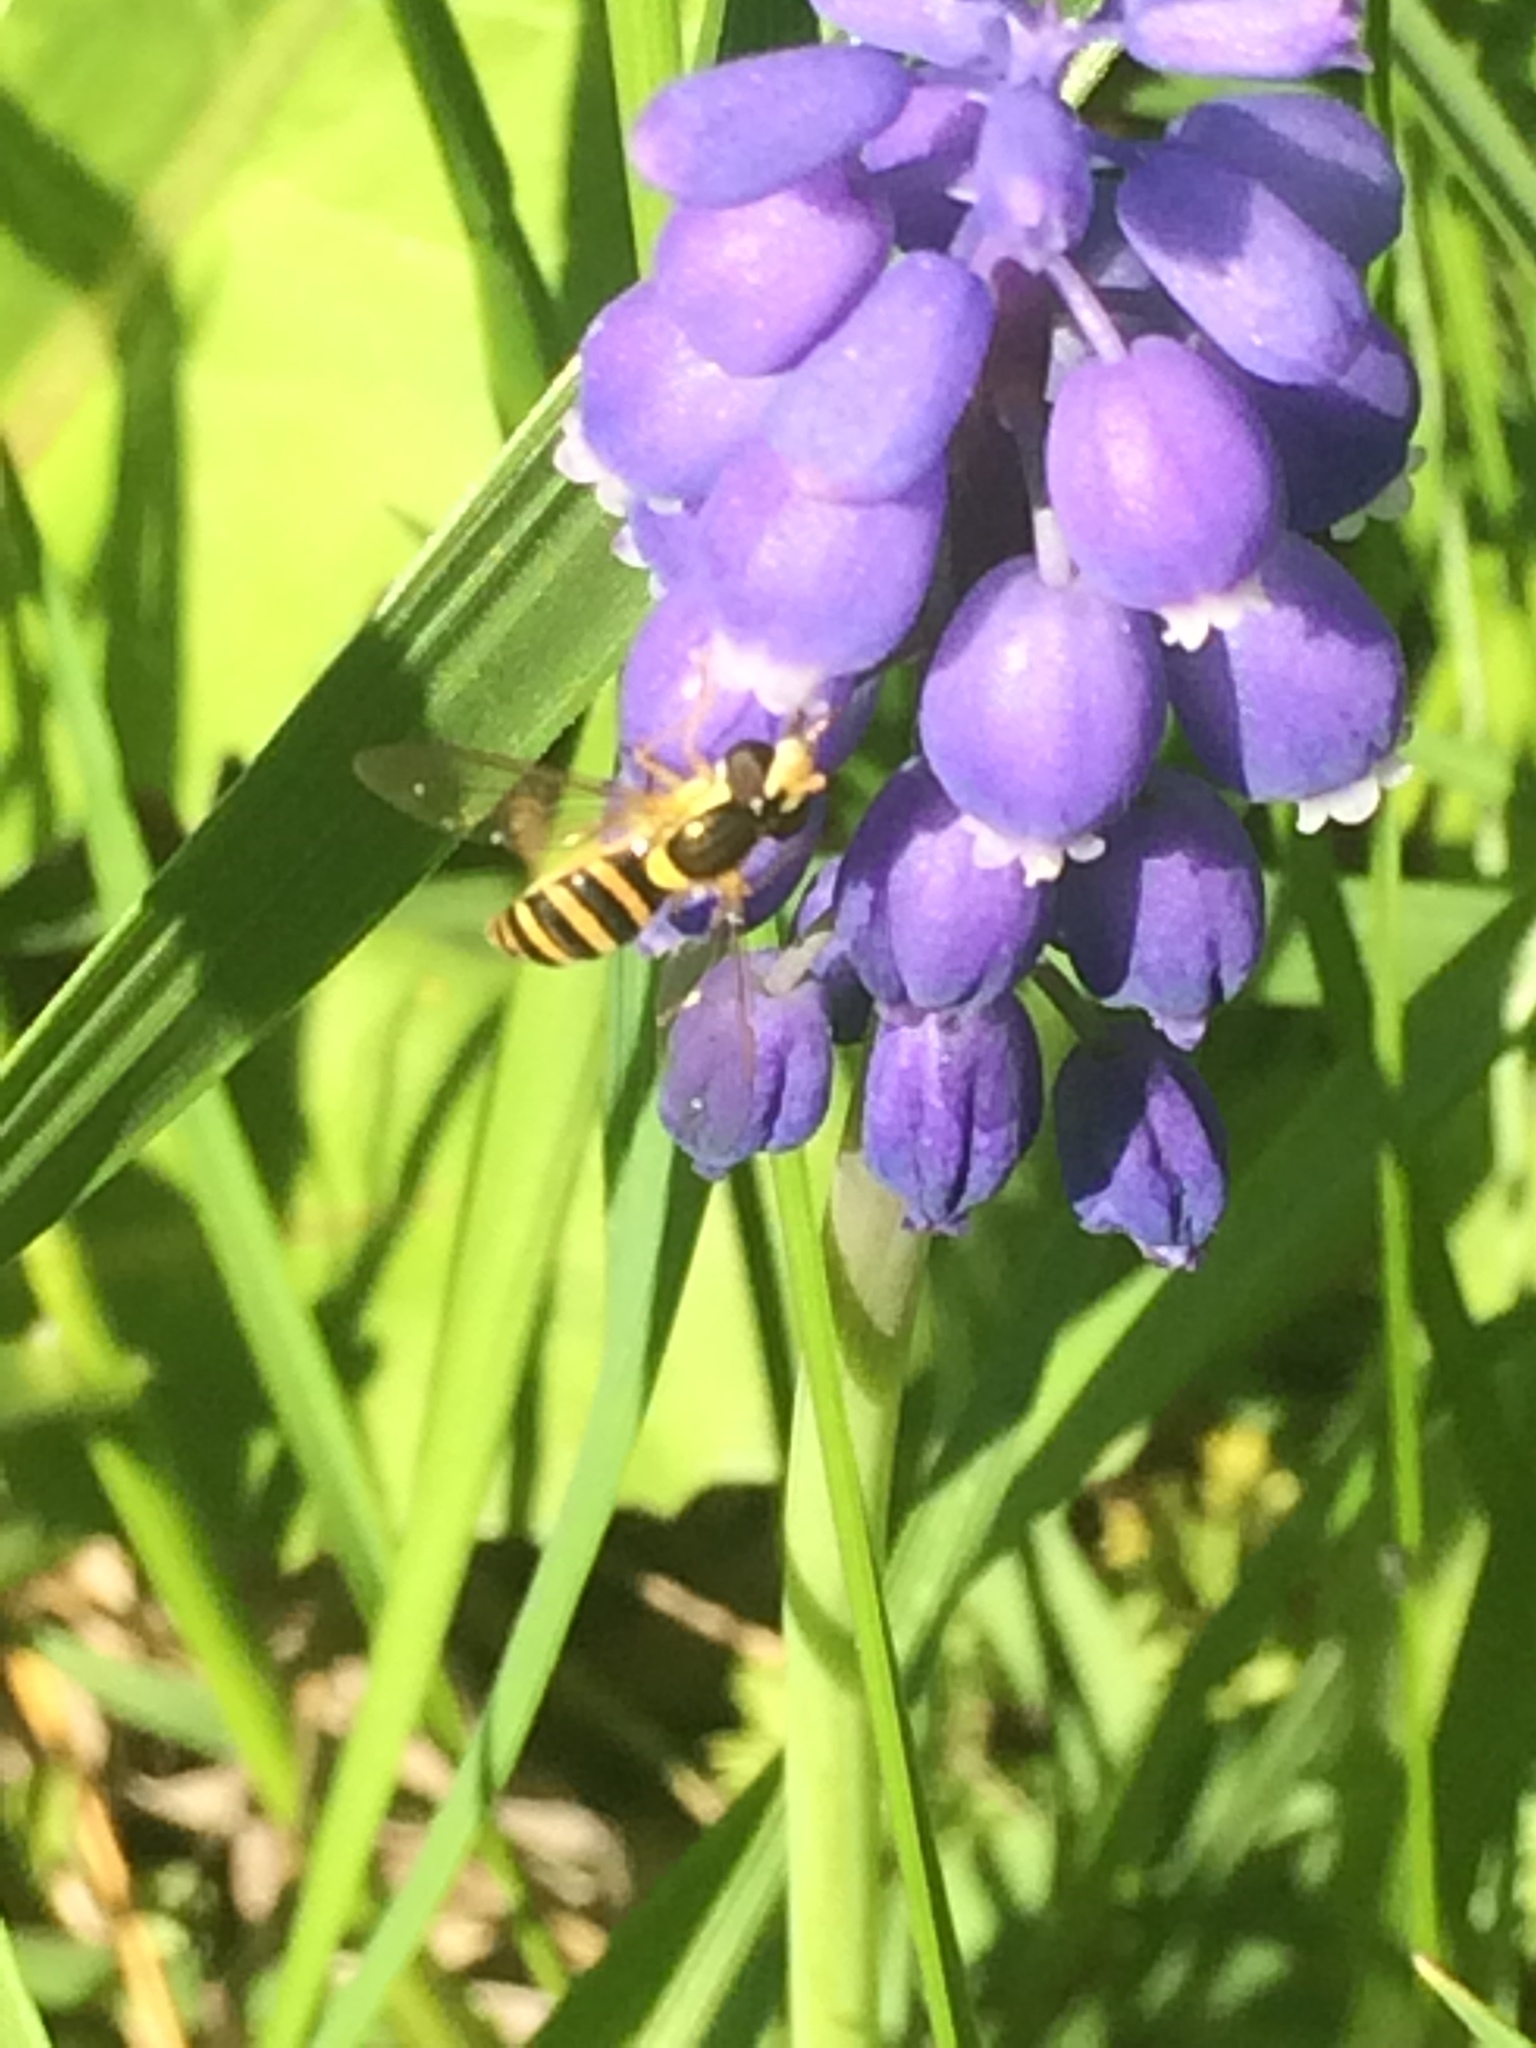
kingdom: Animalia
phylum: Arthropoda
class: Insecta
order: Diptera
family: Syrphidae
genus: Sphaerophoria
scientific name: Sphaerophoria
